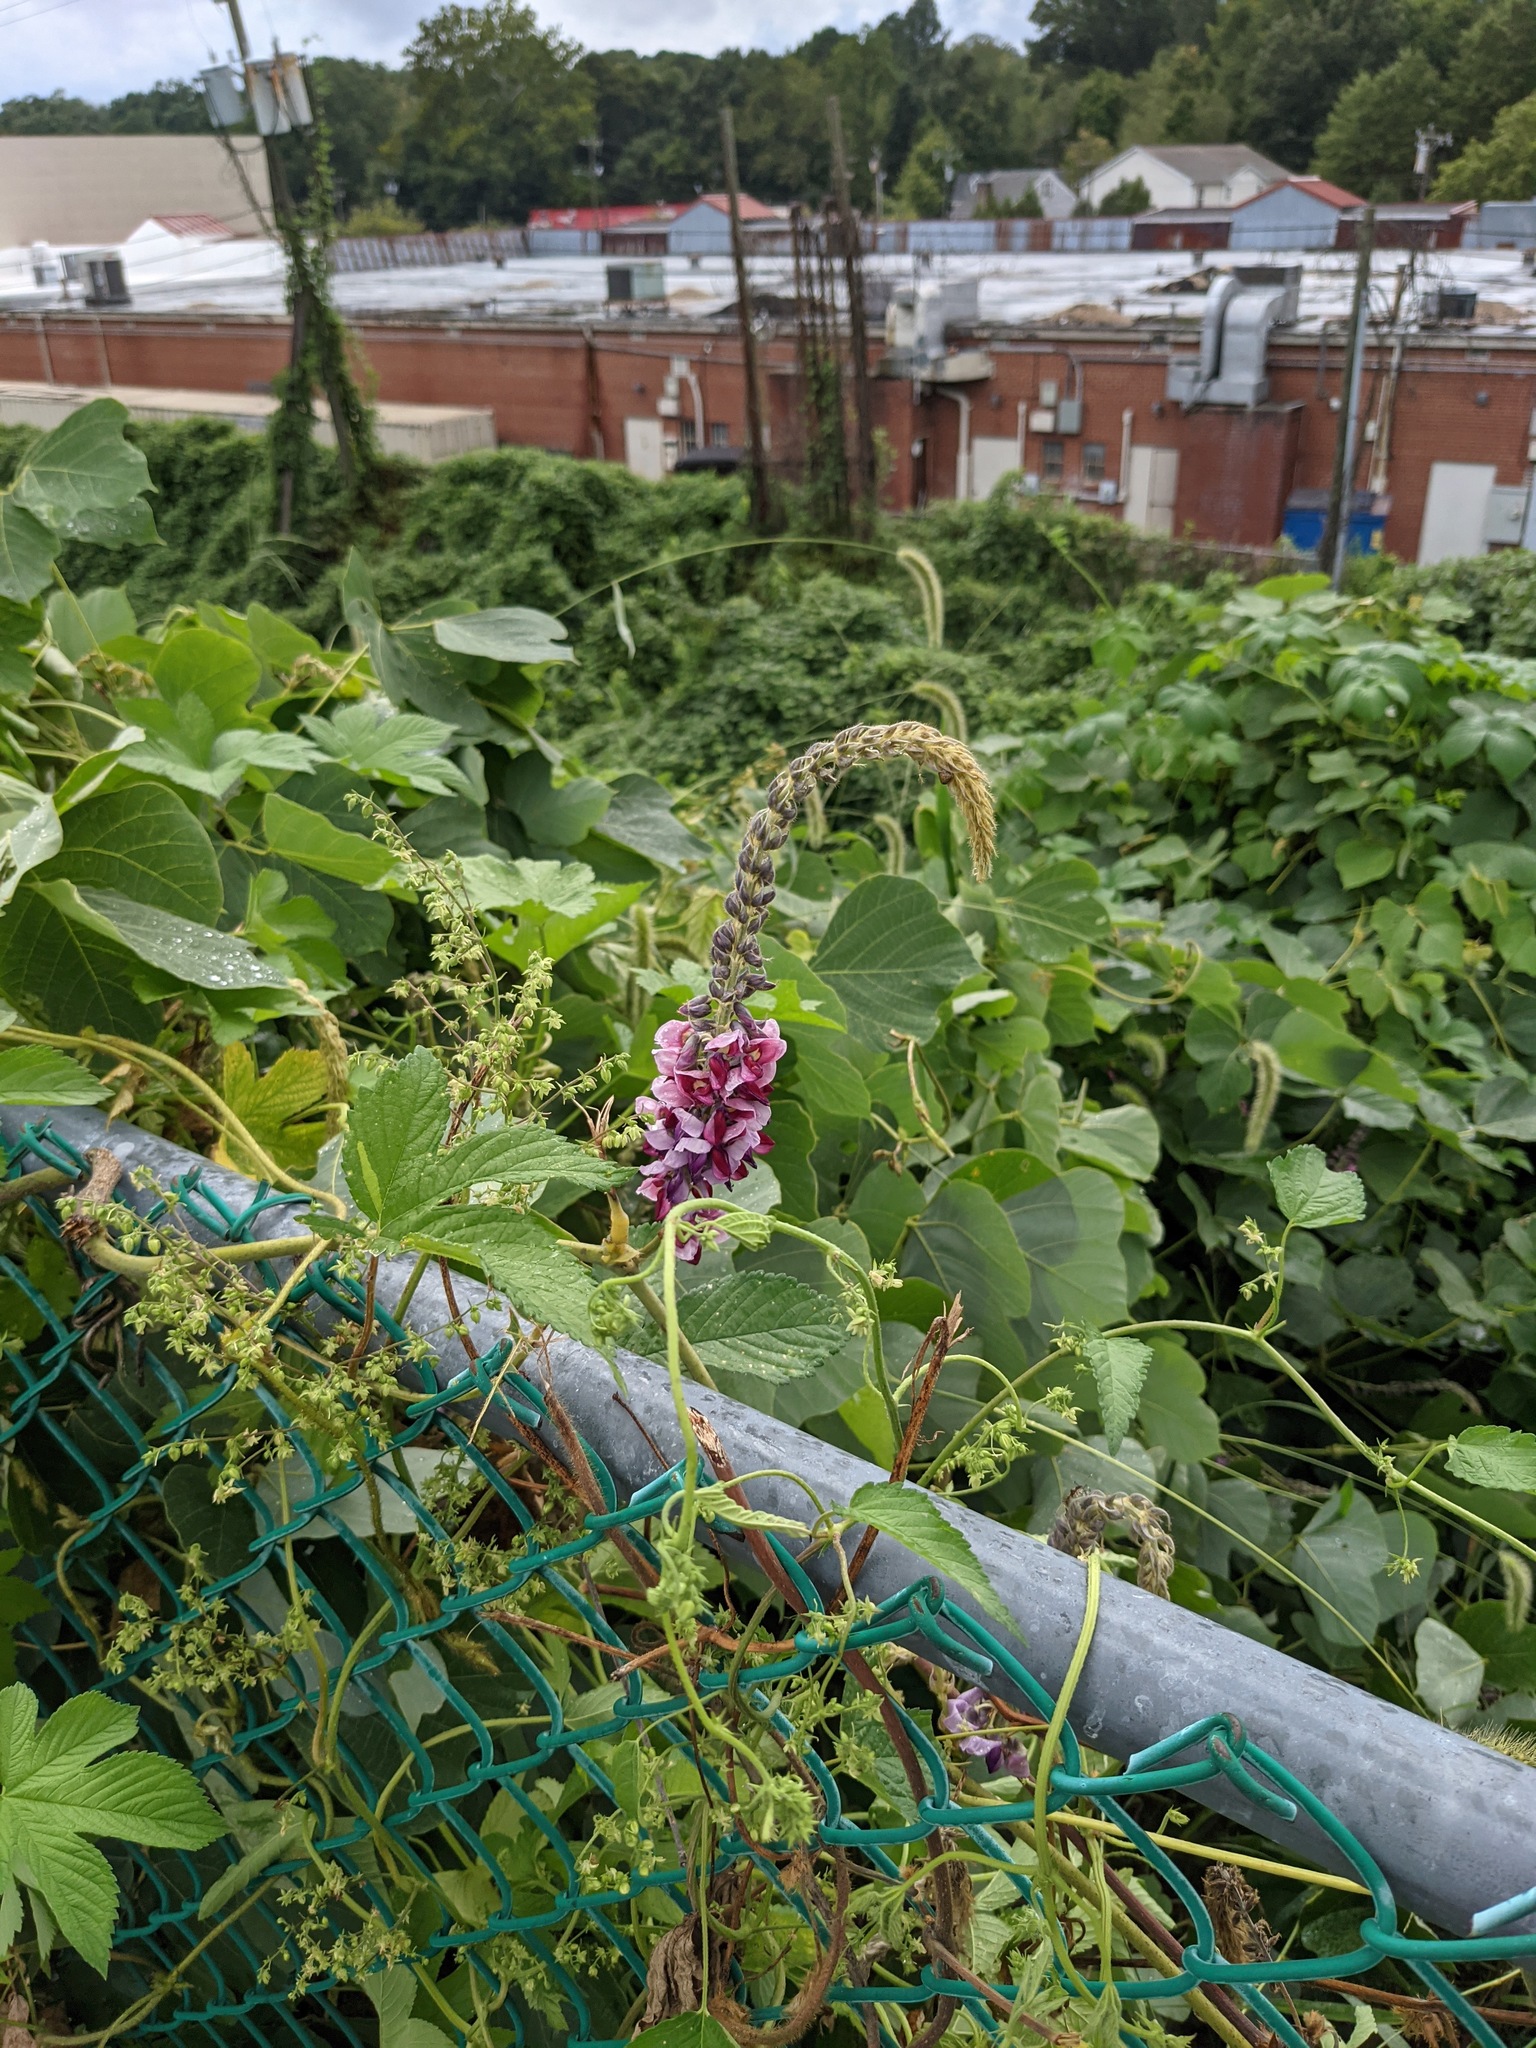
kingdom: Plantae
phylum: Tracheophyta
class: Magnoliopsida
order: Fabales
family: Fabaceae
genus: Pueraria
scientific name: Pueraria montana
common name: Kudzu
